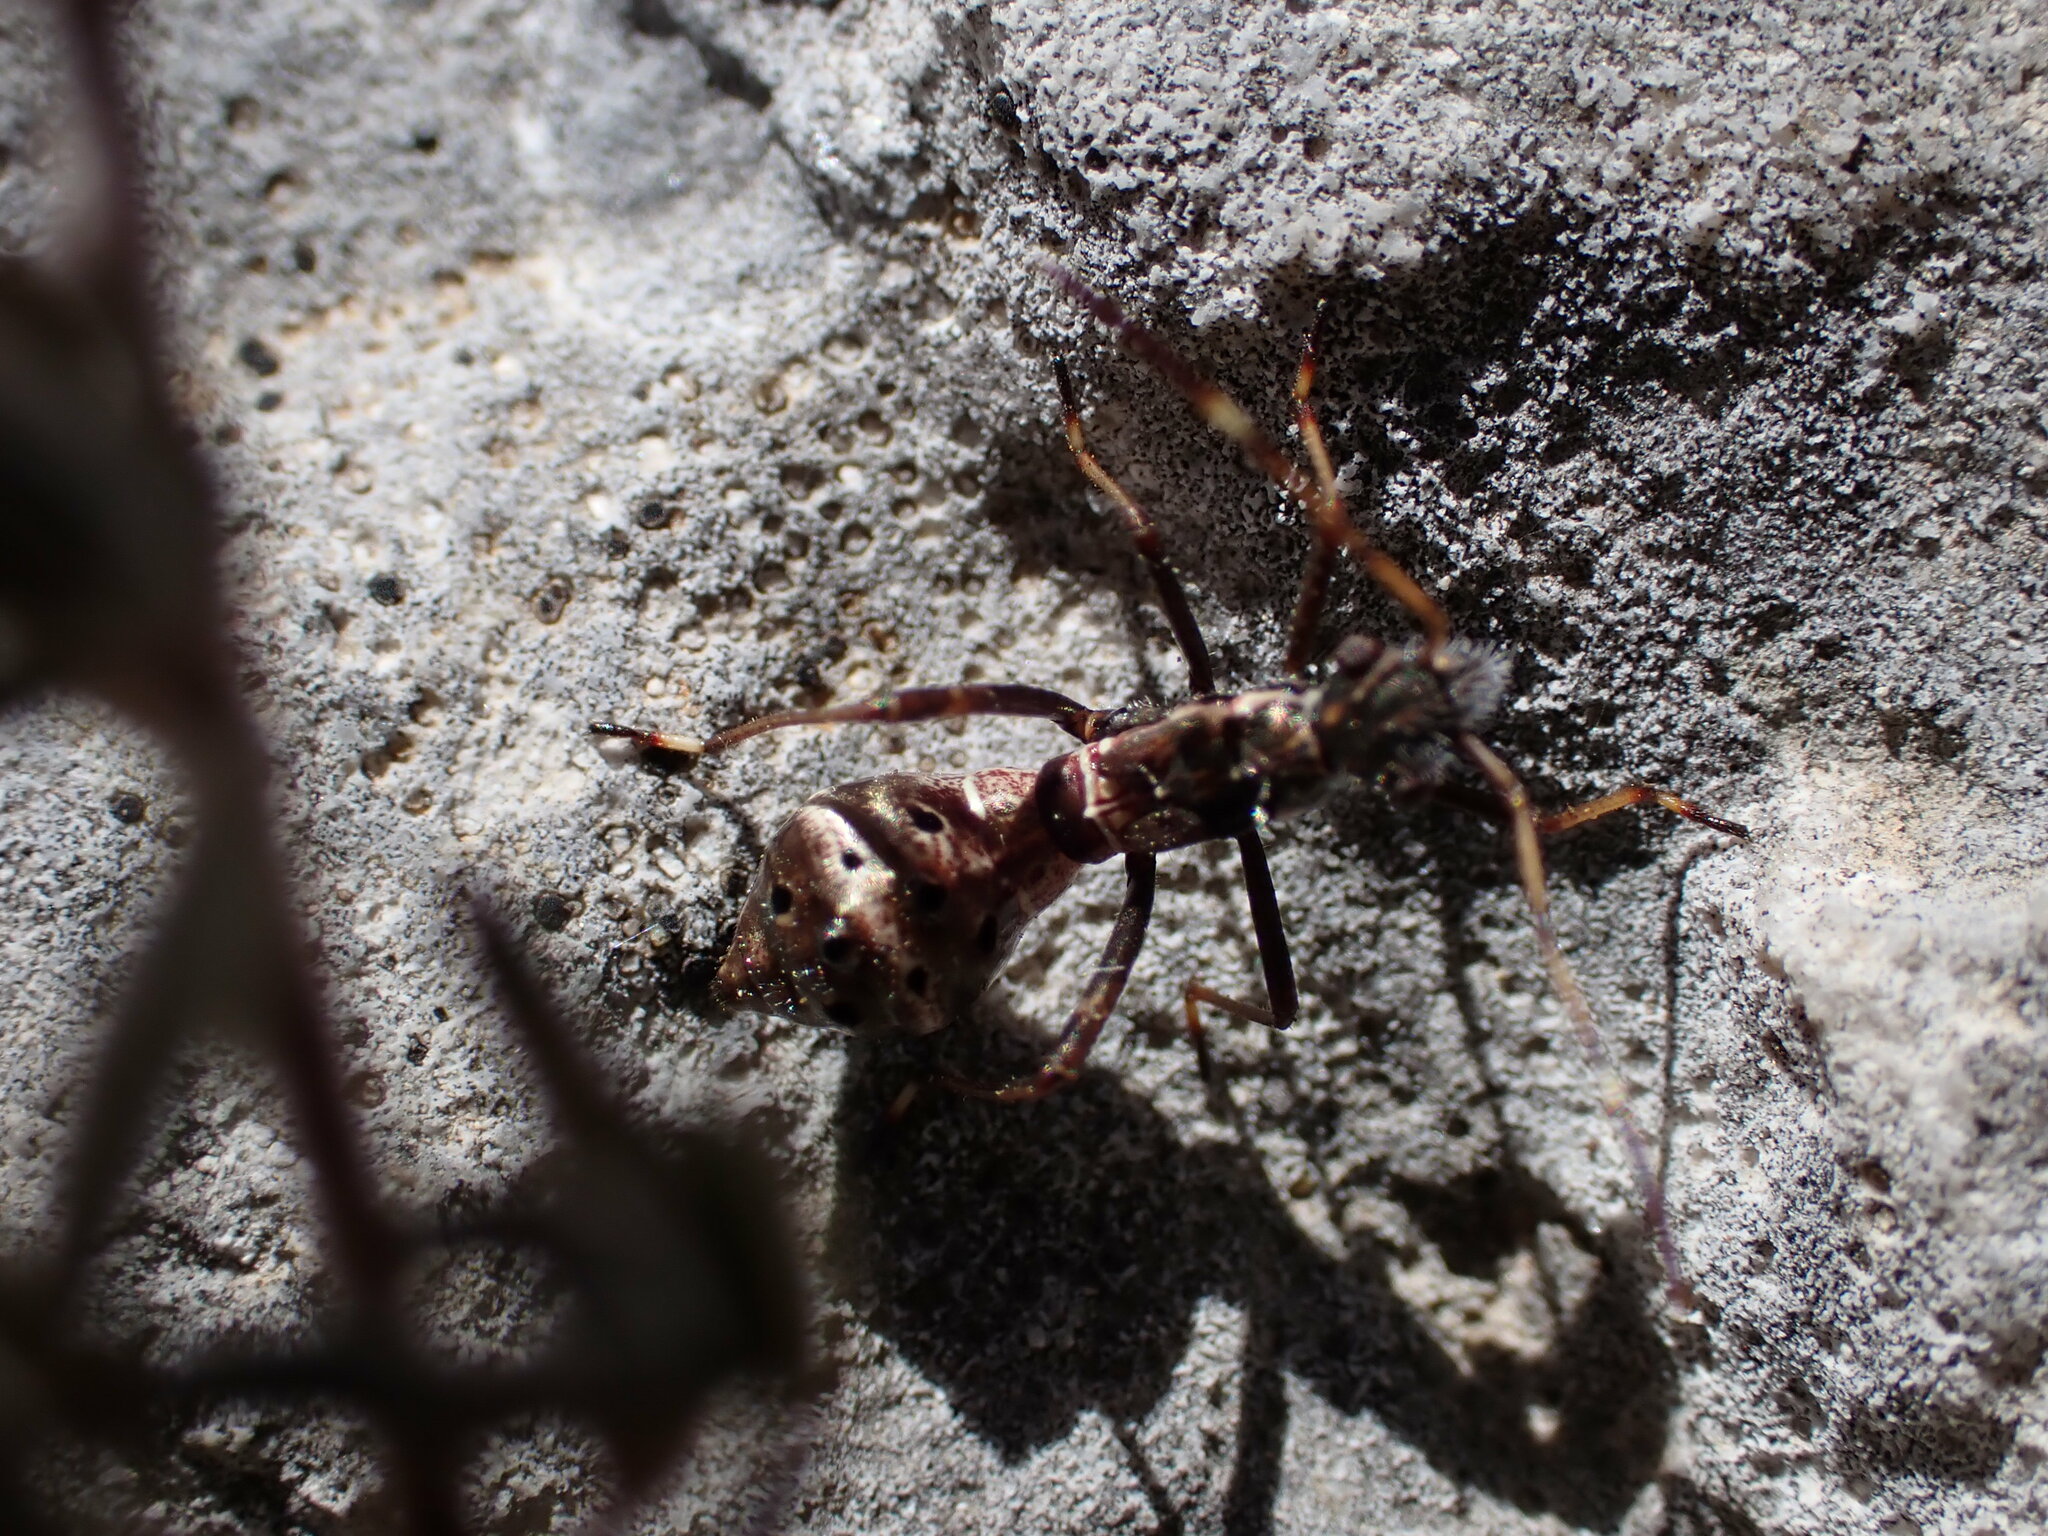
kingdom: Animalia
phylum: Arthropoda
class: Insecta
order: Hemiptera
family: Alydidae
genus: Camptopus
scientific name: Camptopus lateralis
